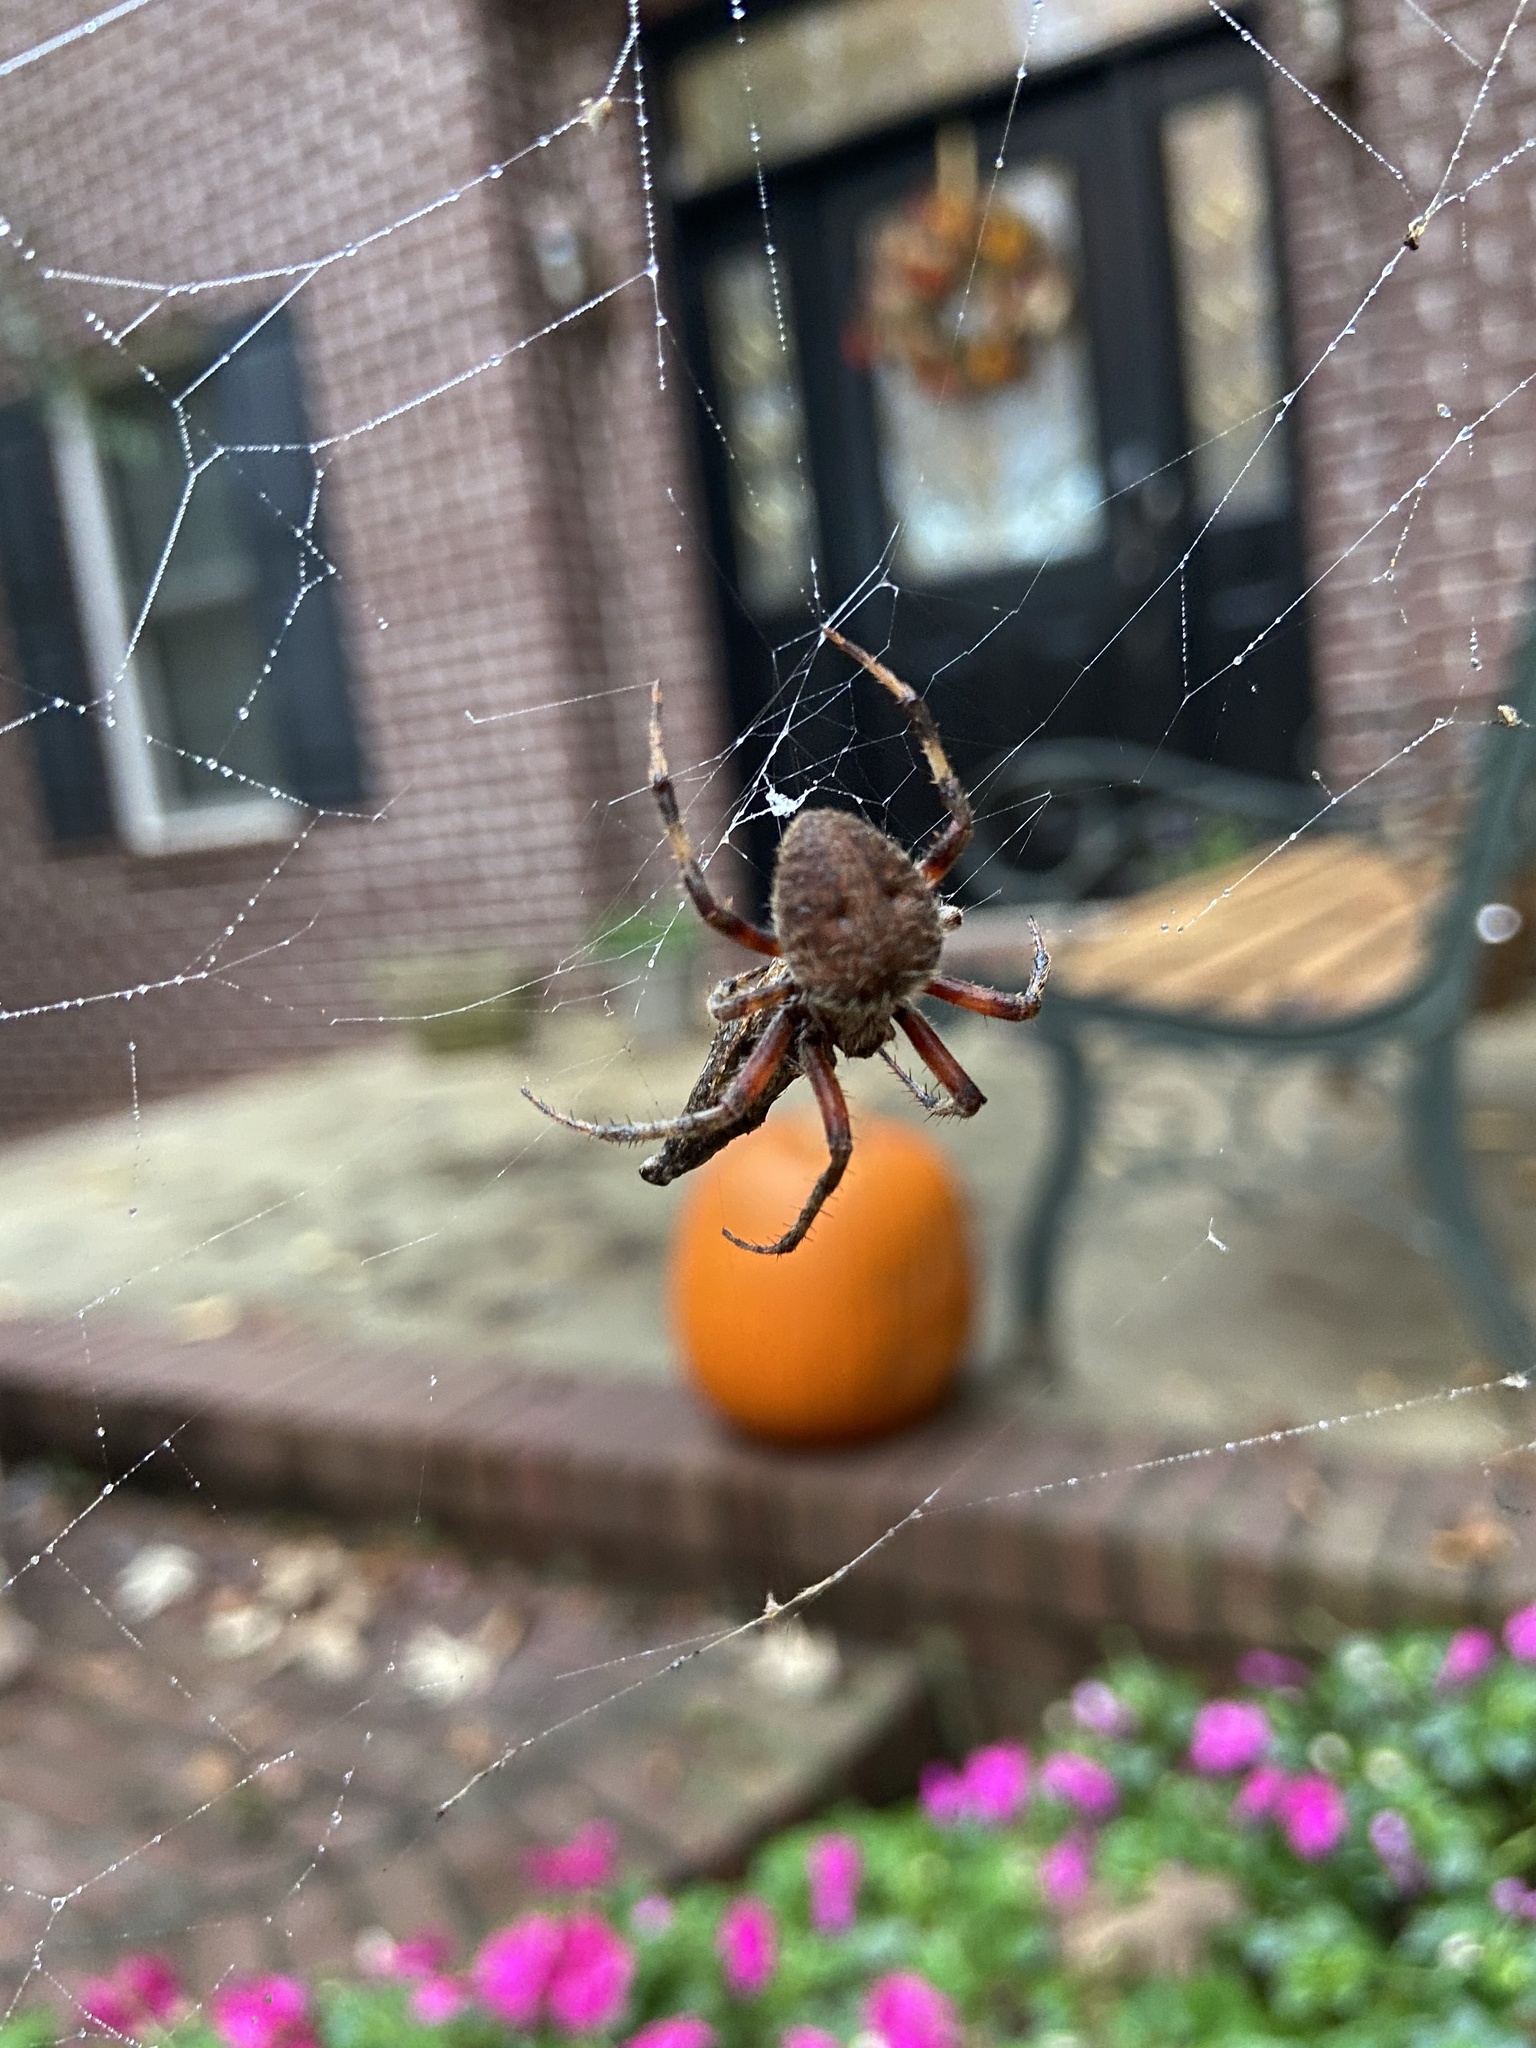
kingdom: Animalia
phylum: Arthropoda
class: Arachnida
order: Araneae
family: Araneidae
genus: Neoscona
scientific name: Neoscona crucifera
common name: Spotted orbweaver
